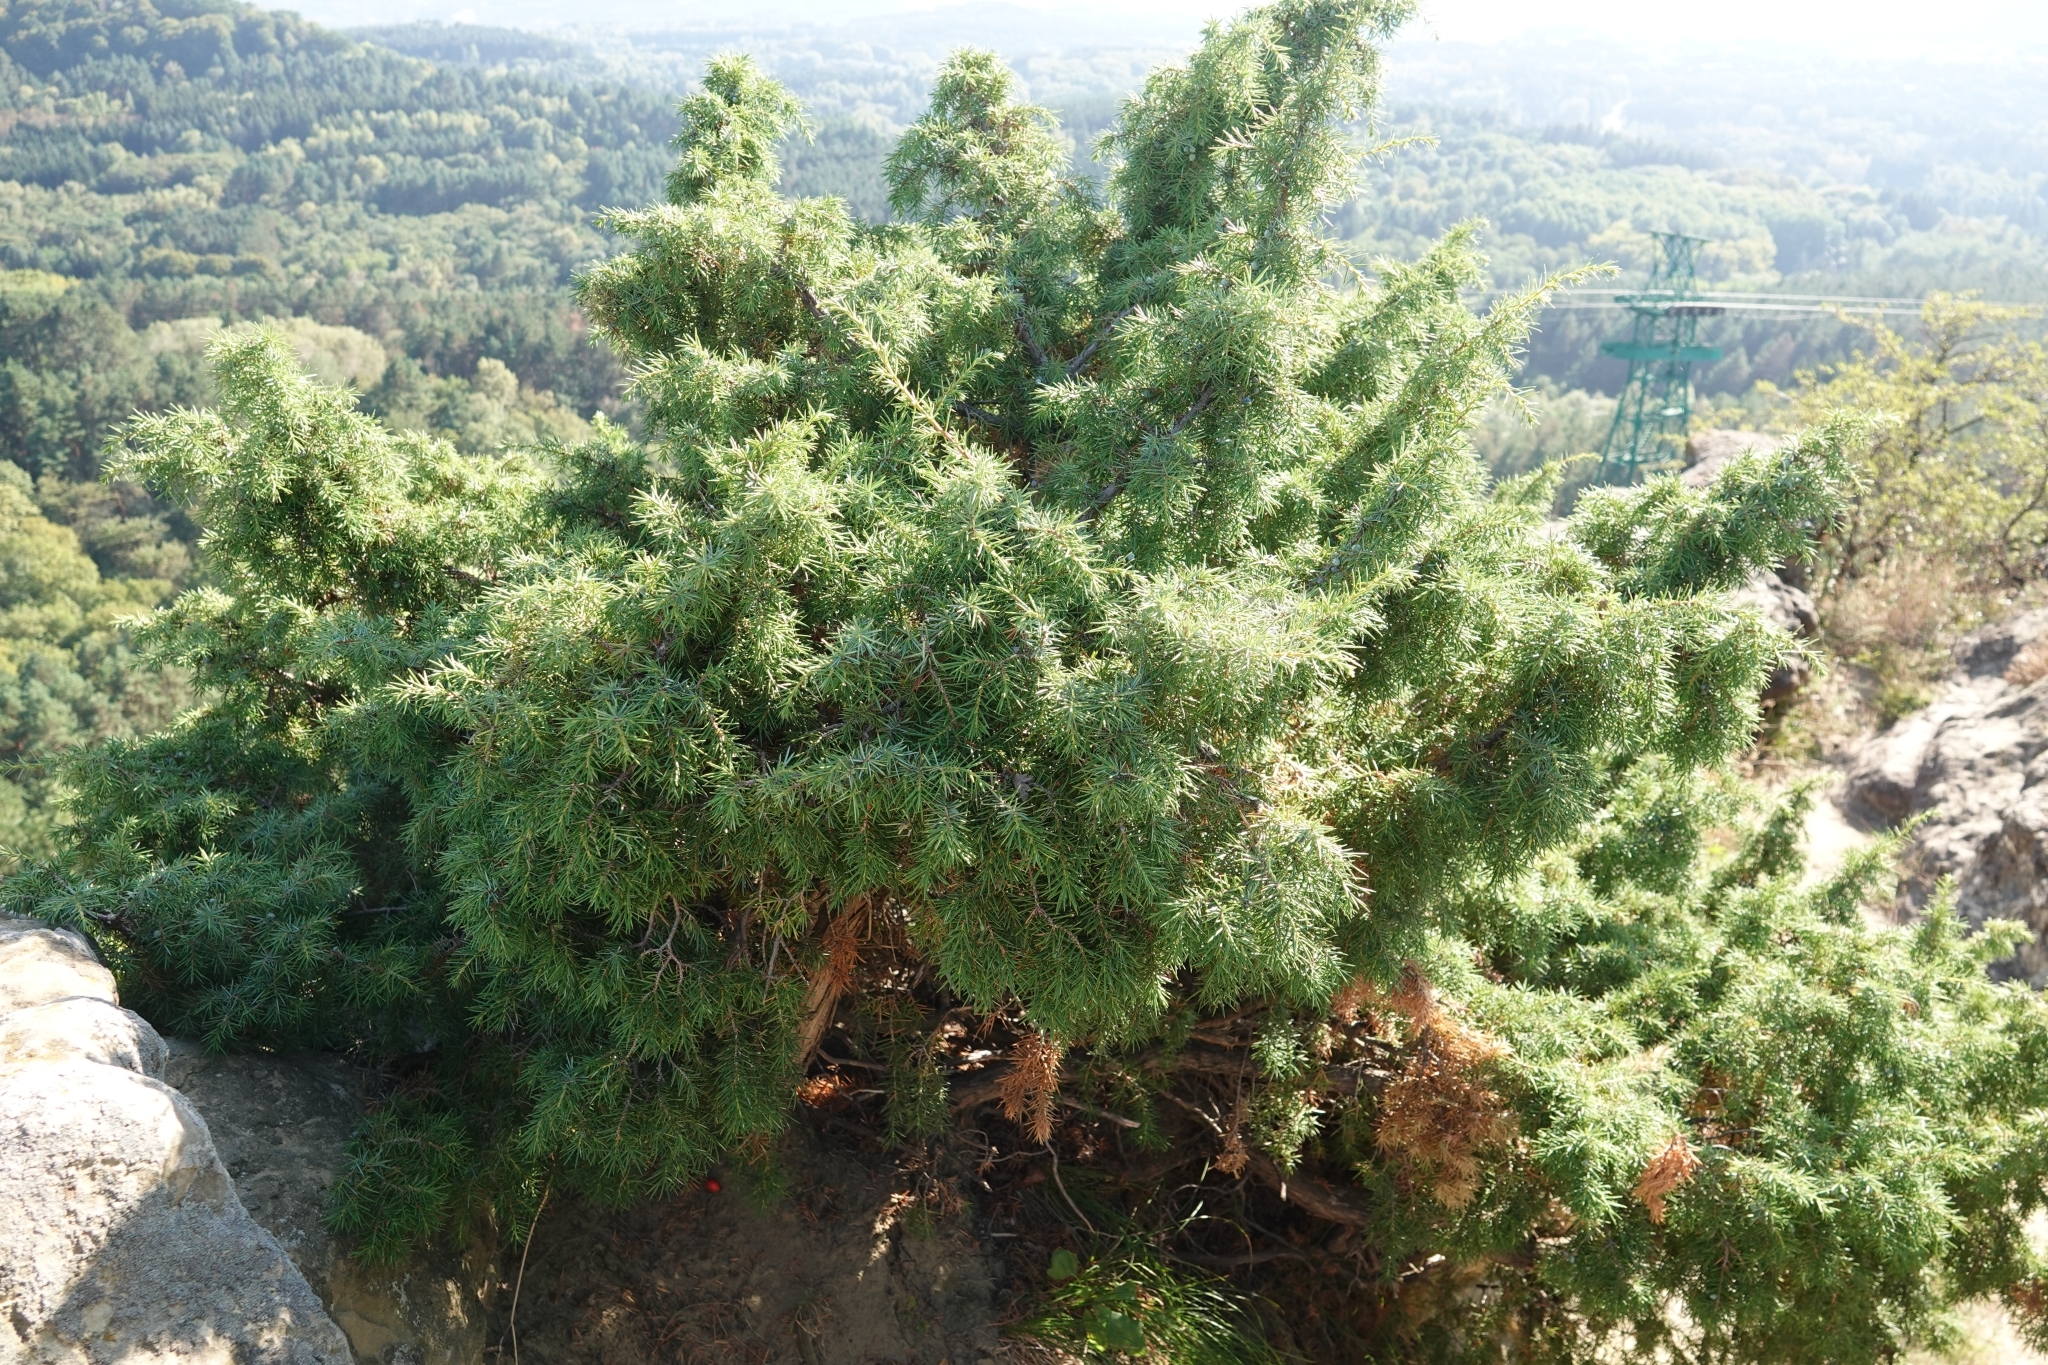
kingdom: Plantae
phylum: Tracheophyta
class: Pinopsida
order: Pinales
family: Cupressaceae
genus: Juniperus
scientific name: Juniperus communis
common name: Common juniper
